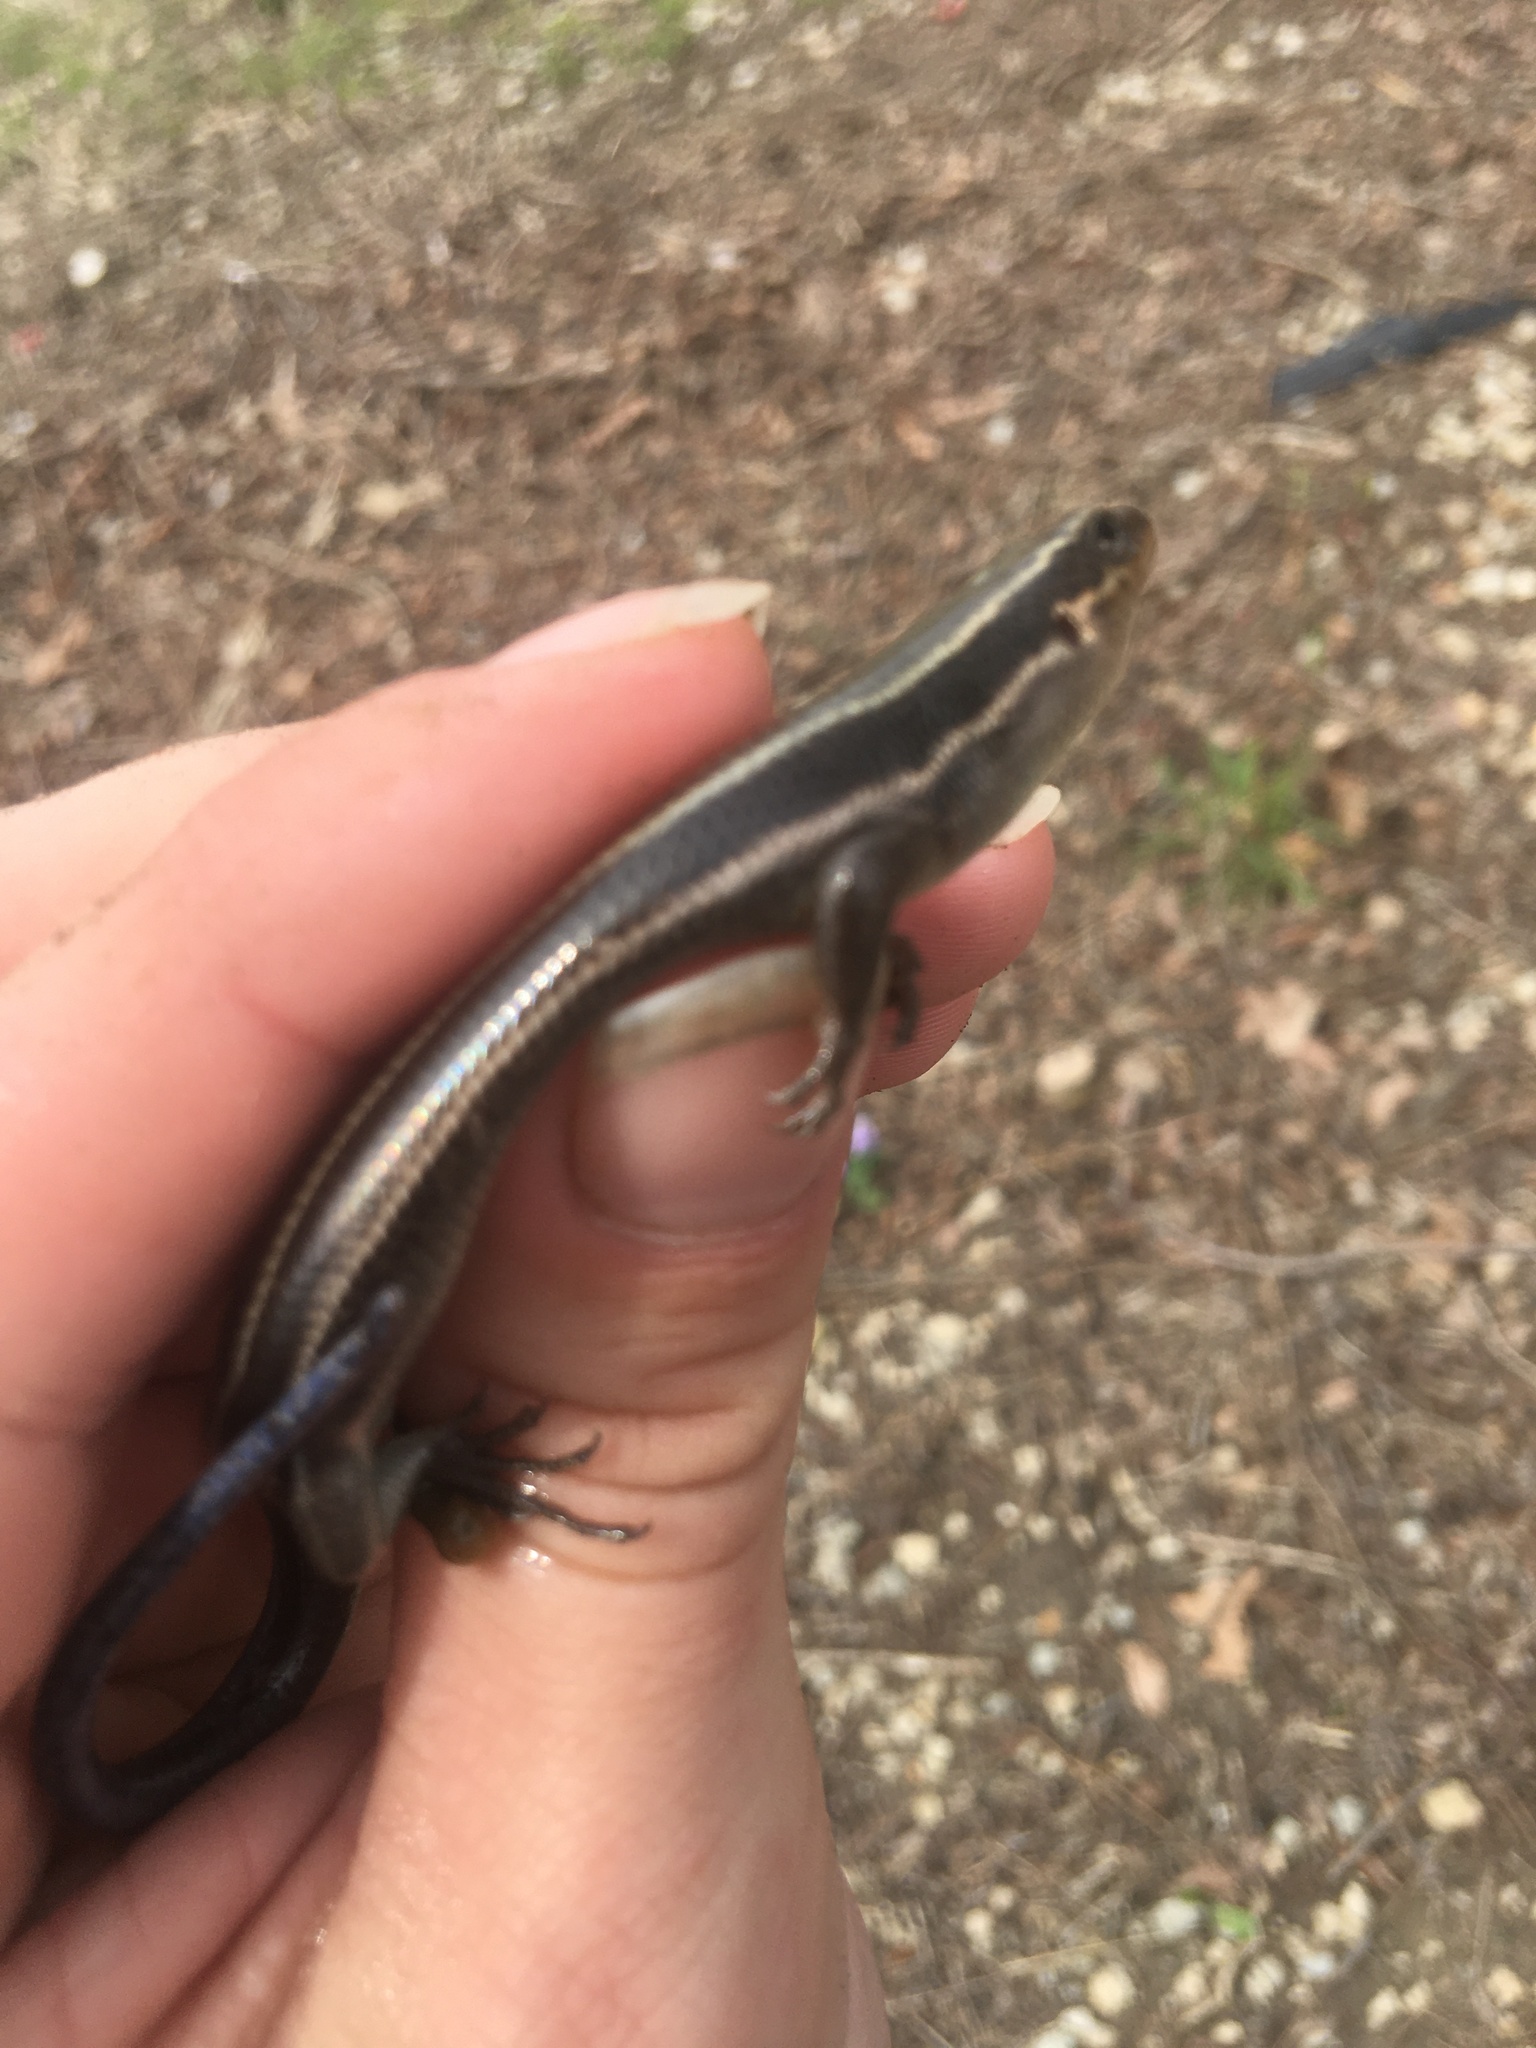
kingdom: Animalia
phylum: Chordata
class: Squamata
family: Scincidae
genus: Plestiodon
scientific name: Plestiodon fasciatus
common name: Five-lined skink
